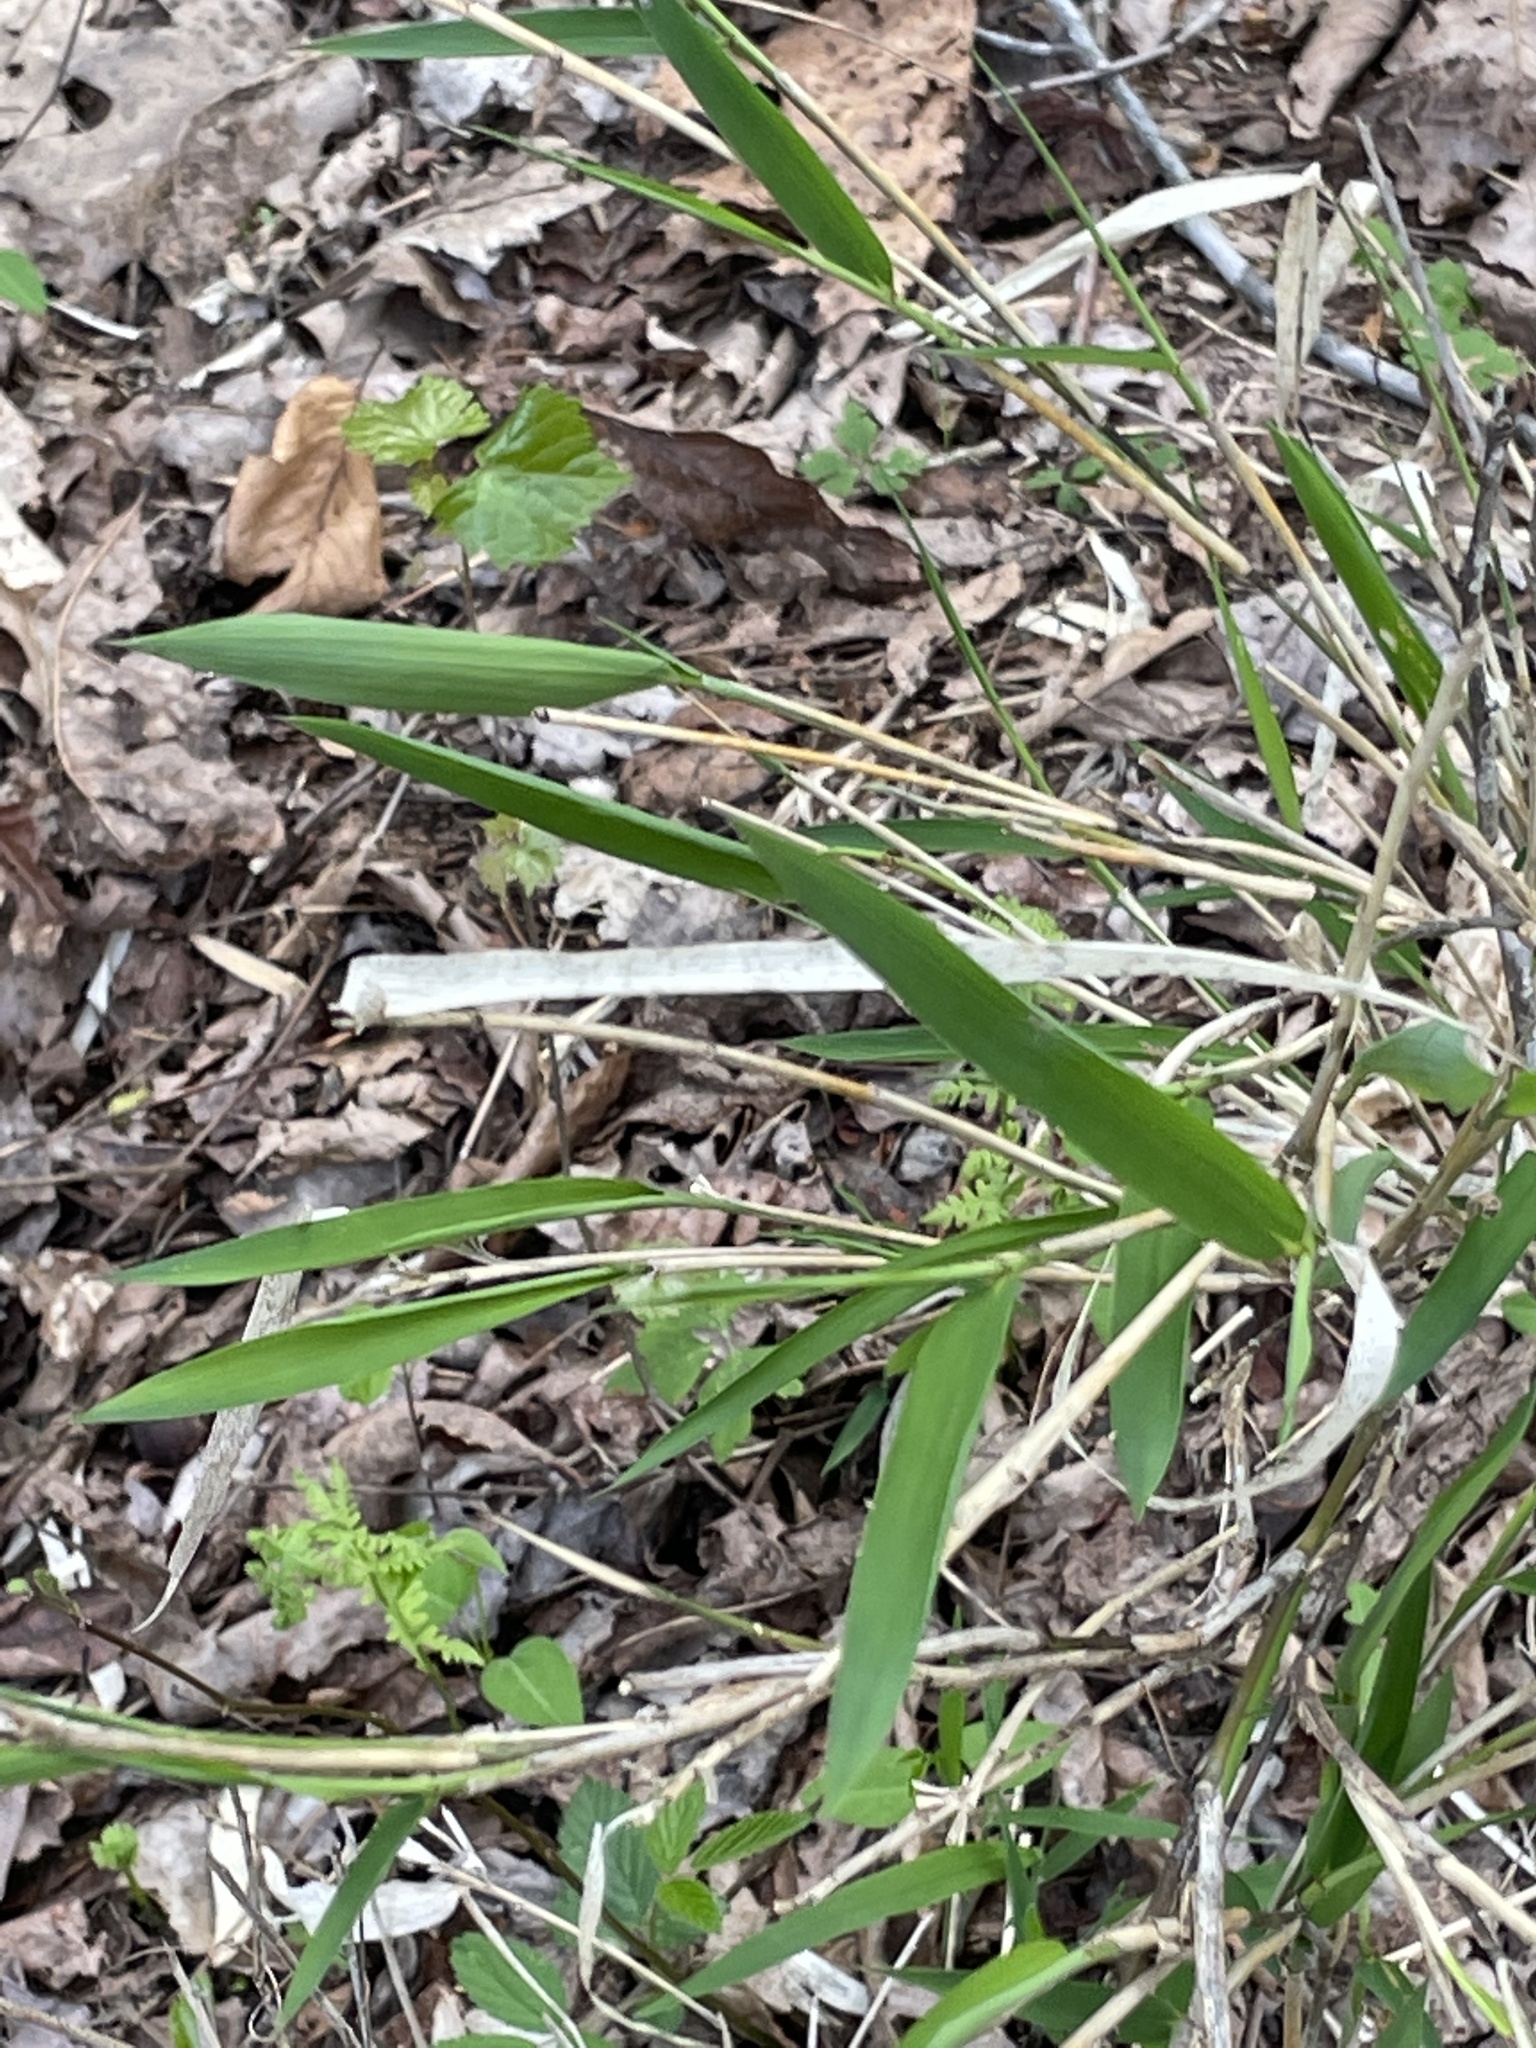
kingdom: Plantae
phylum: Tracheophyta
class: Liliopsida
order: Poales
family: Poaceae
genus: Arundinaria
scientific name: Arundinaria appalachiana
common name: Hill cane
